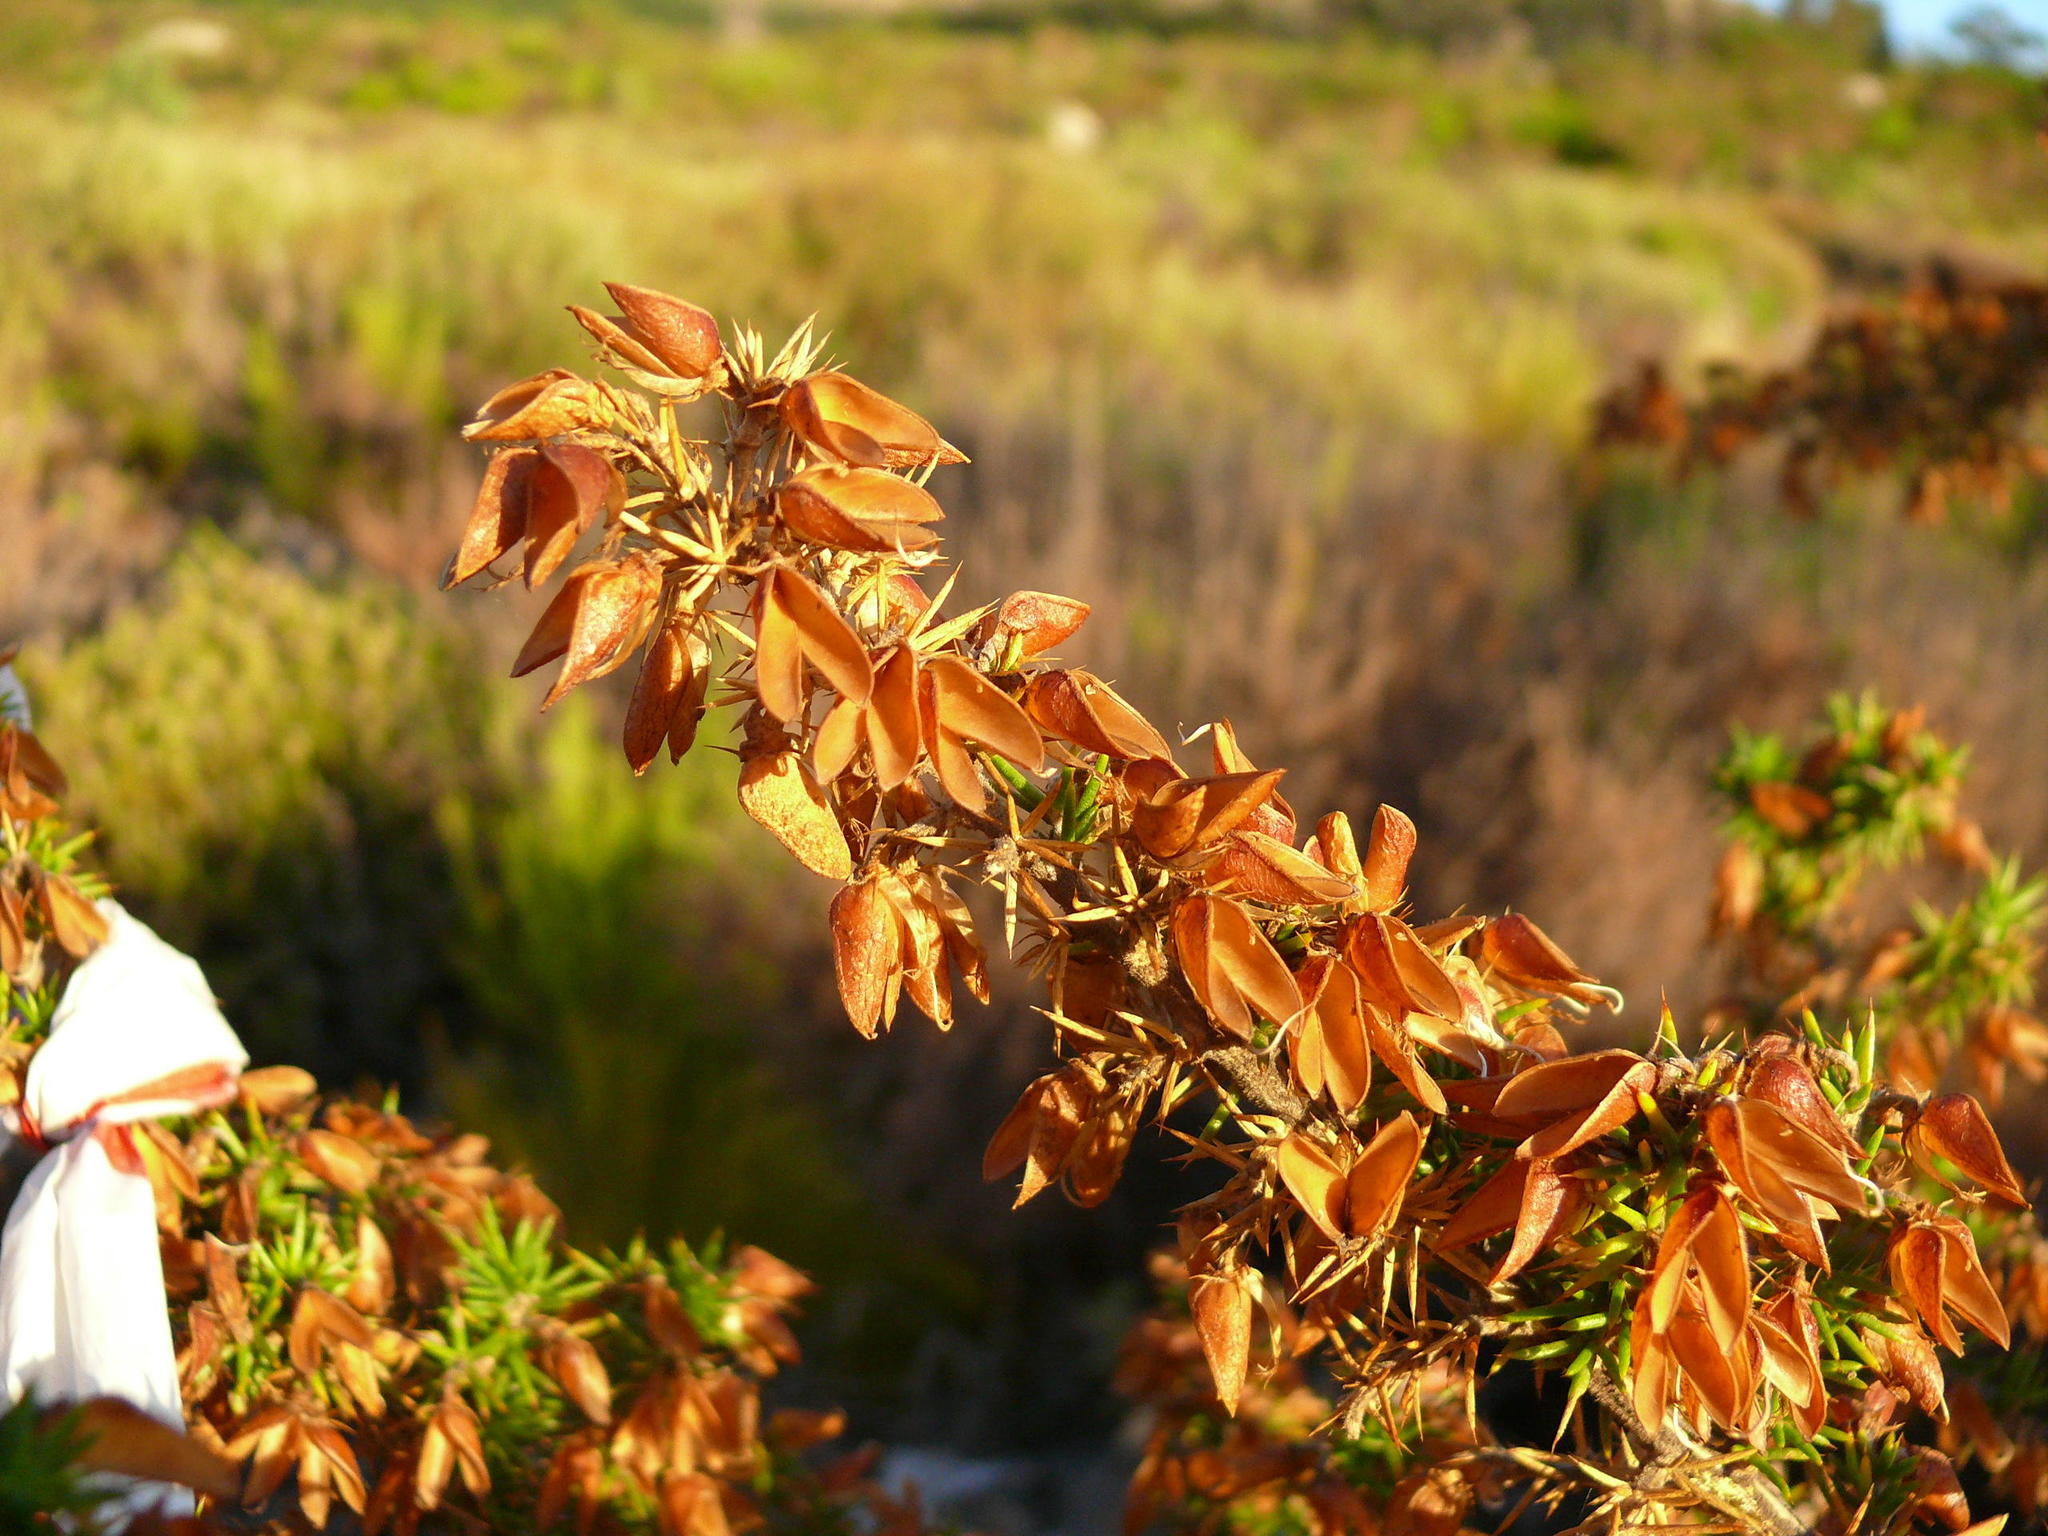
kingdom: Plantae
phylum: Tracheophyta
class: Magnoliopsida
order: Fabales
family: Fabaceae
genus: Aspalathus
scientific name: Aspalathus astroites
